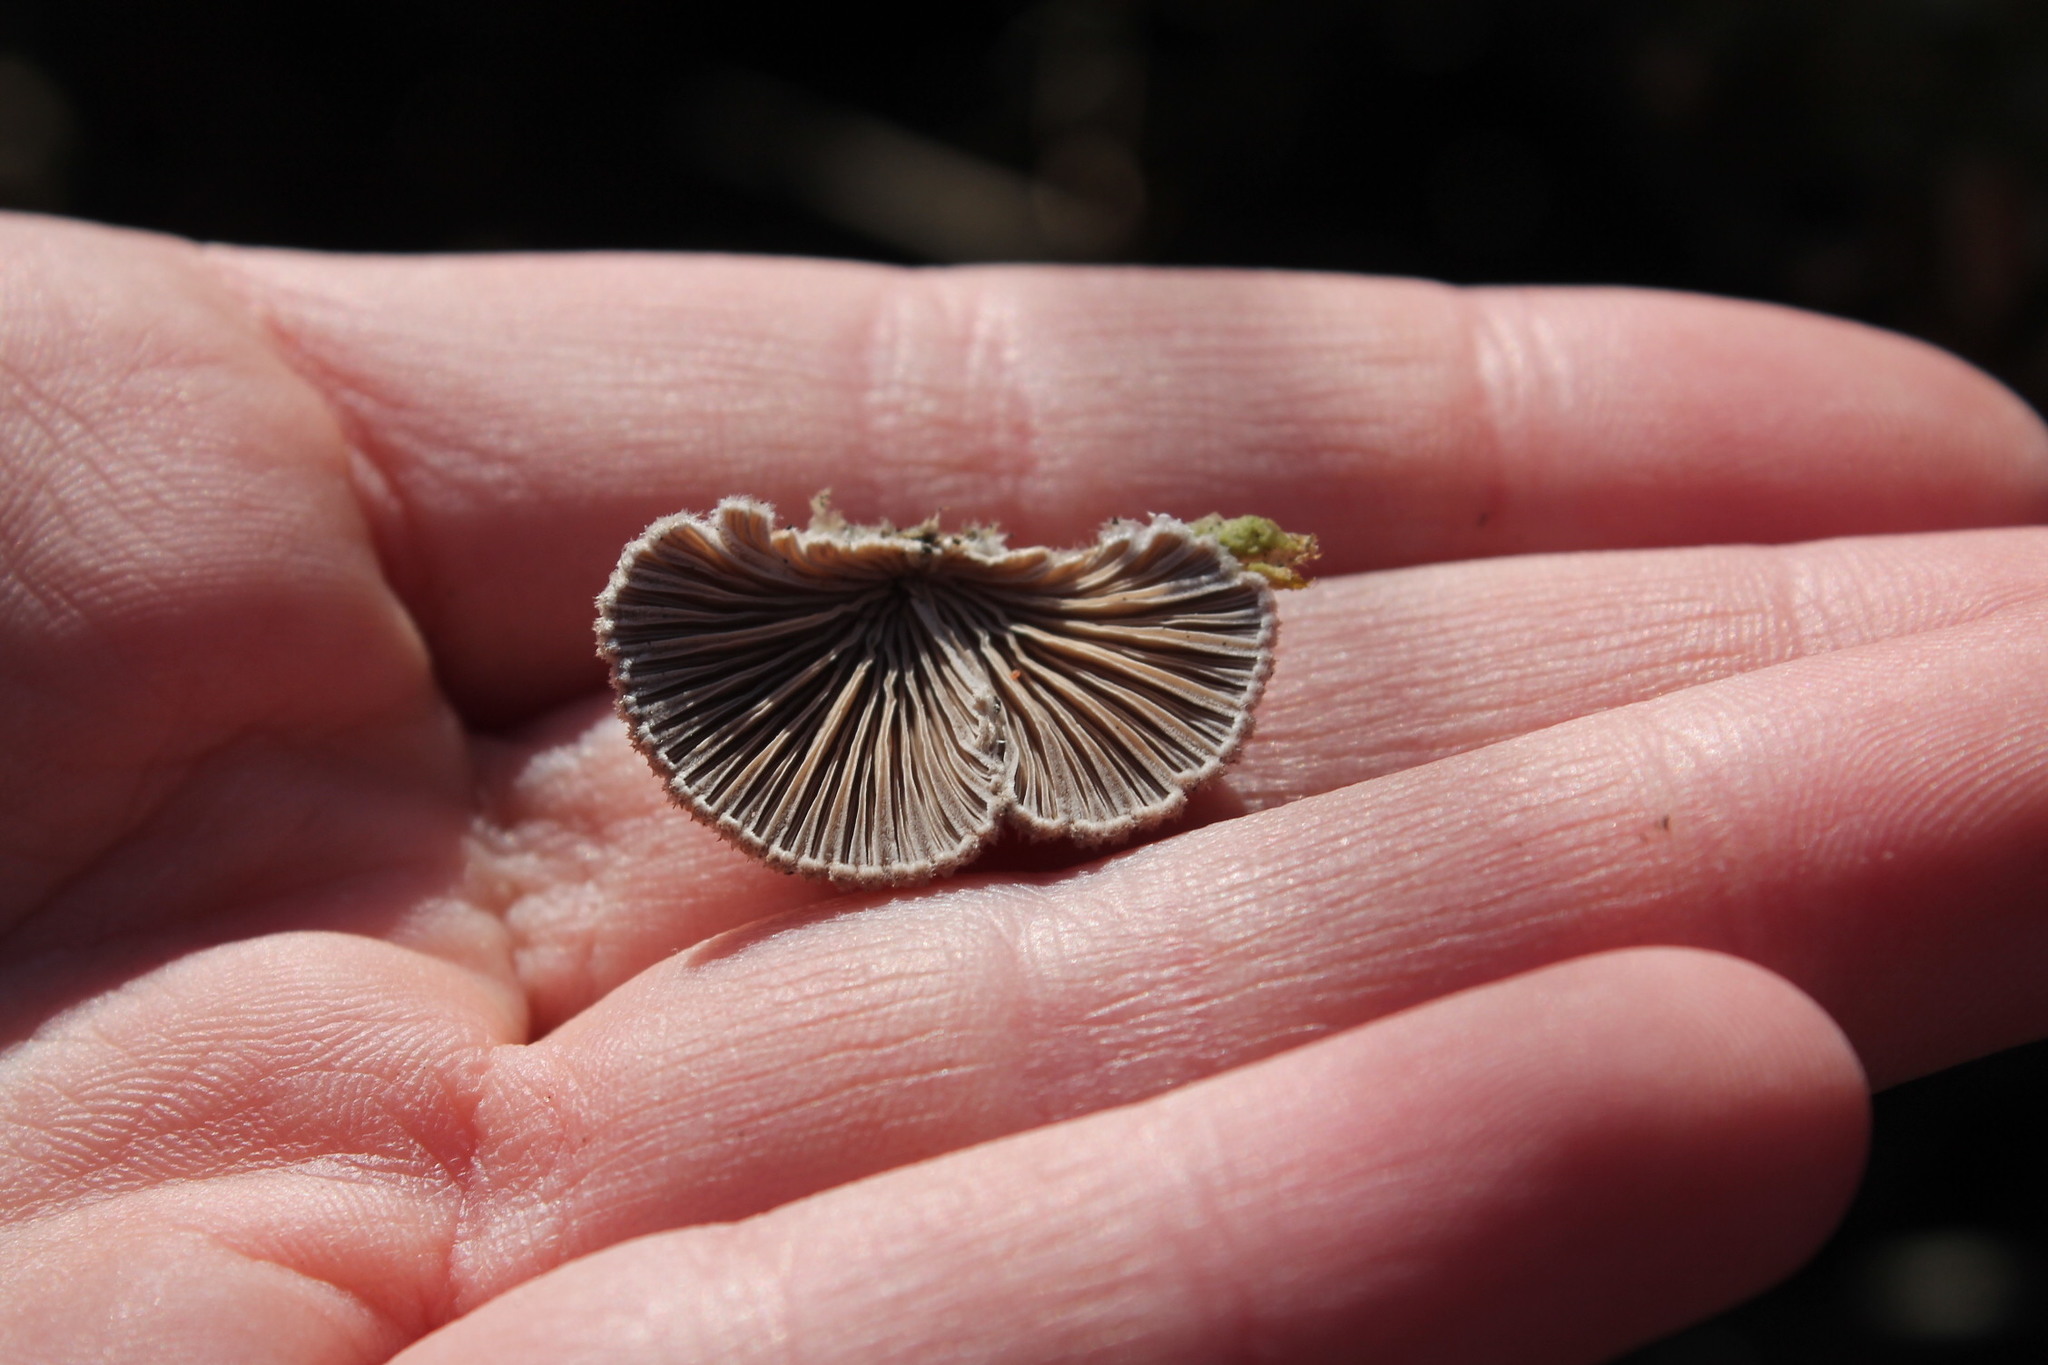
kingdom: Fungi
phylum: Basidiomycota
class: Agaricomycetes
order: Agaricales
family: Schizophyllaceae
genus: Schizophyllum
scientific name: Schizophyllum commune
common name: Common porecrust
